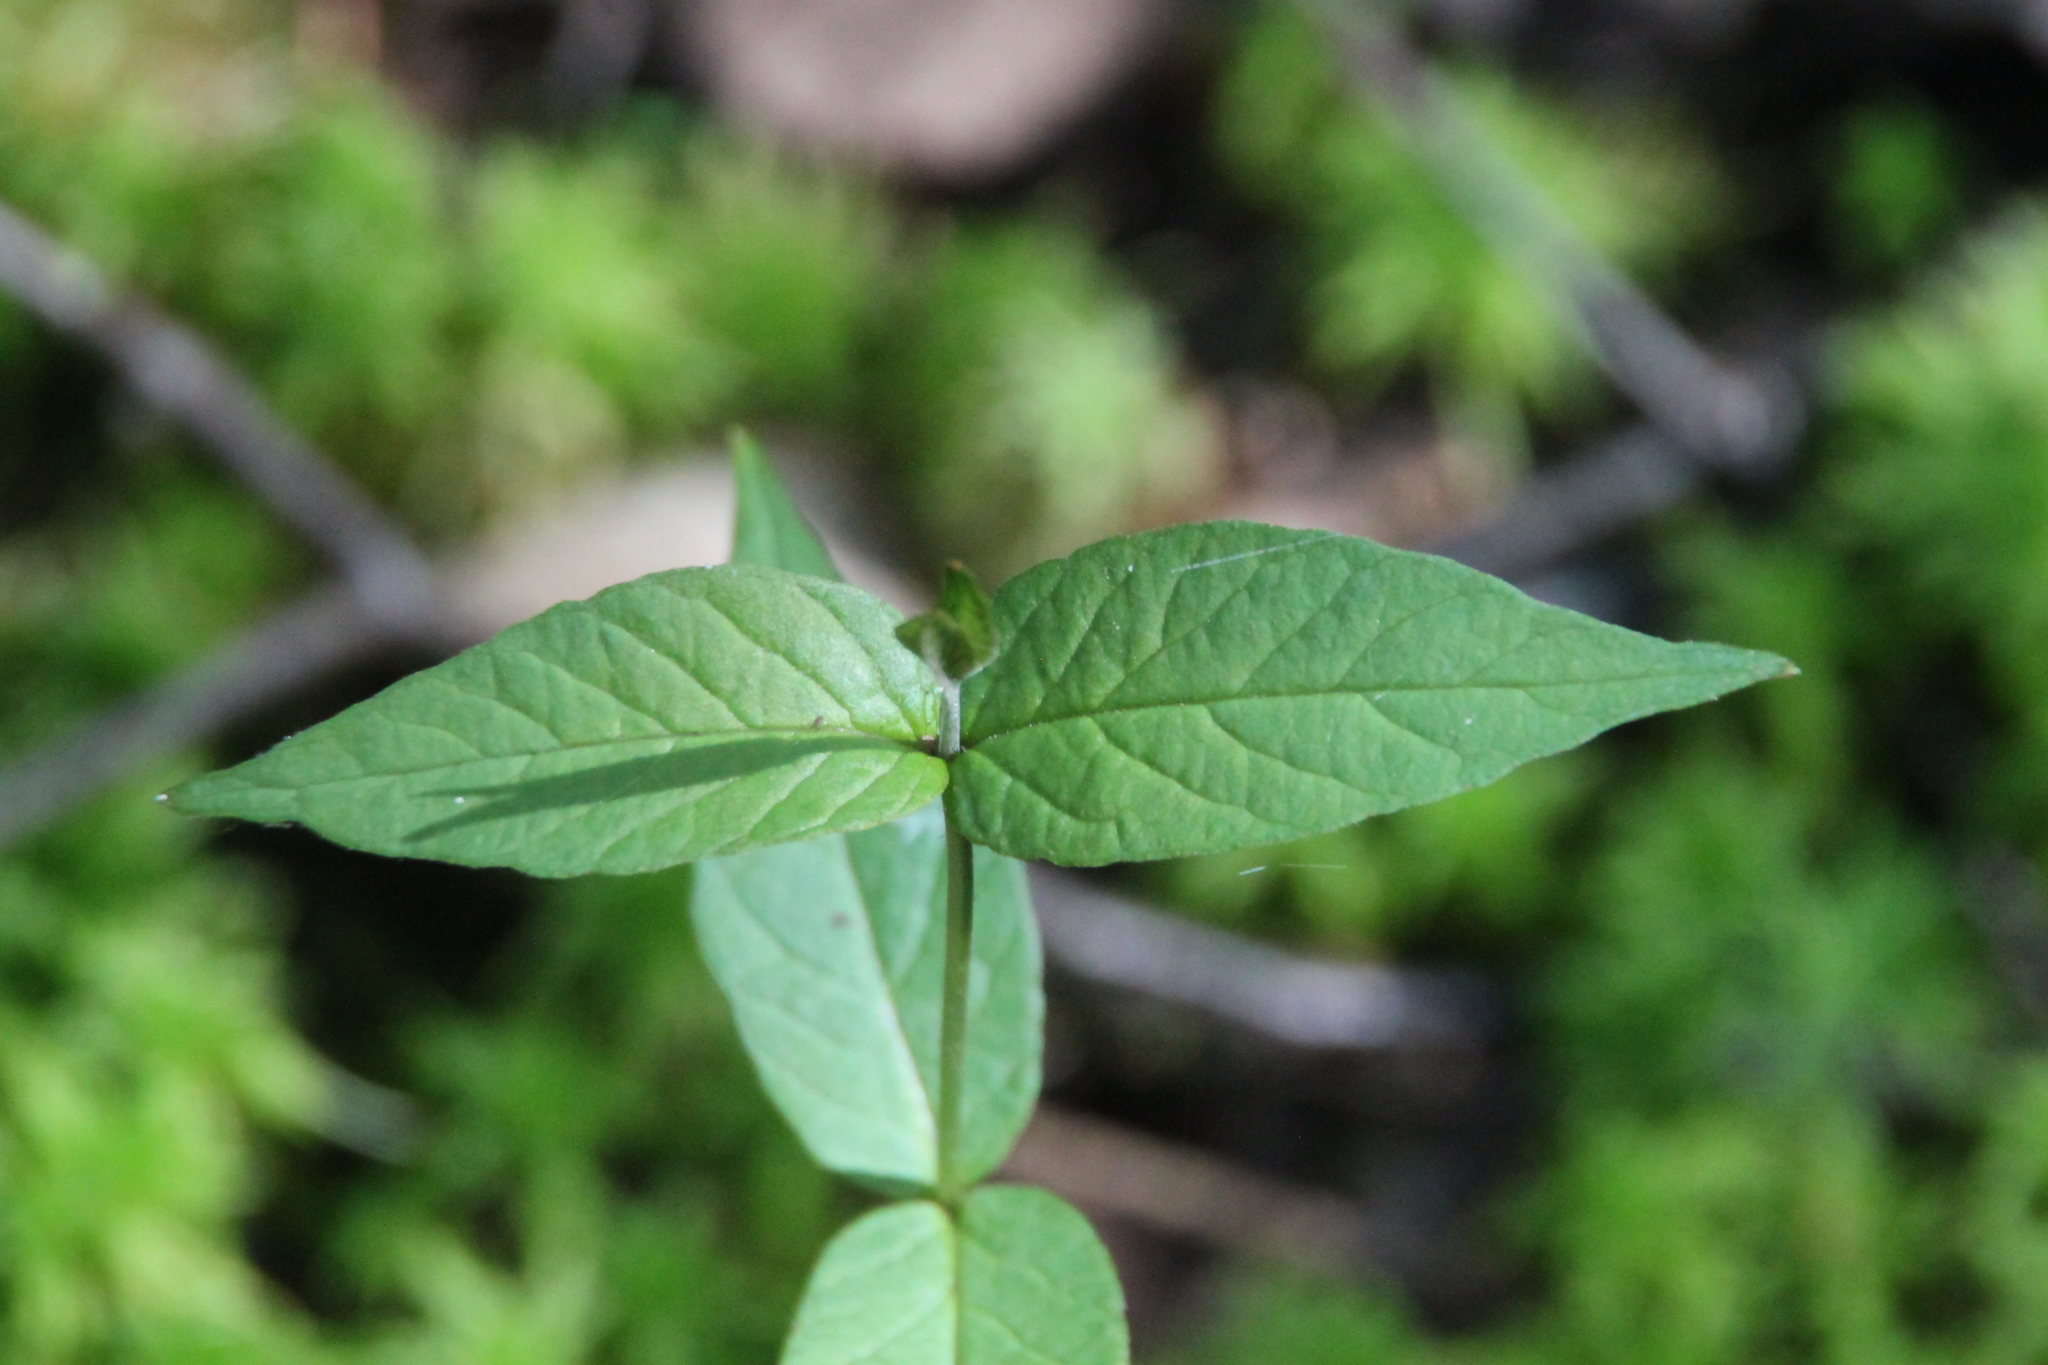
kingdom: Plantae
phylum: Tracheophyta
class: Magnoliopsida
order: Ericales
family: Primulaceae
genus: Lysimachia
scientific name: Lysimachia vulgaris
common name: Yellow loosestrife
